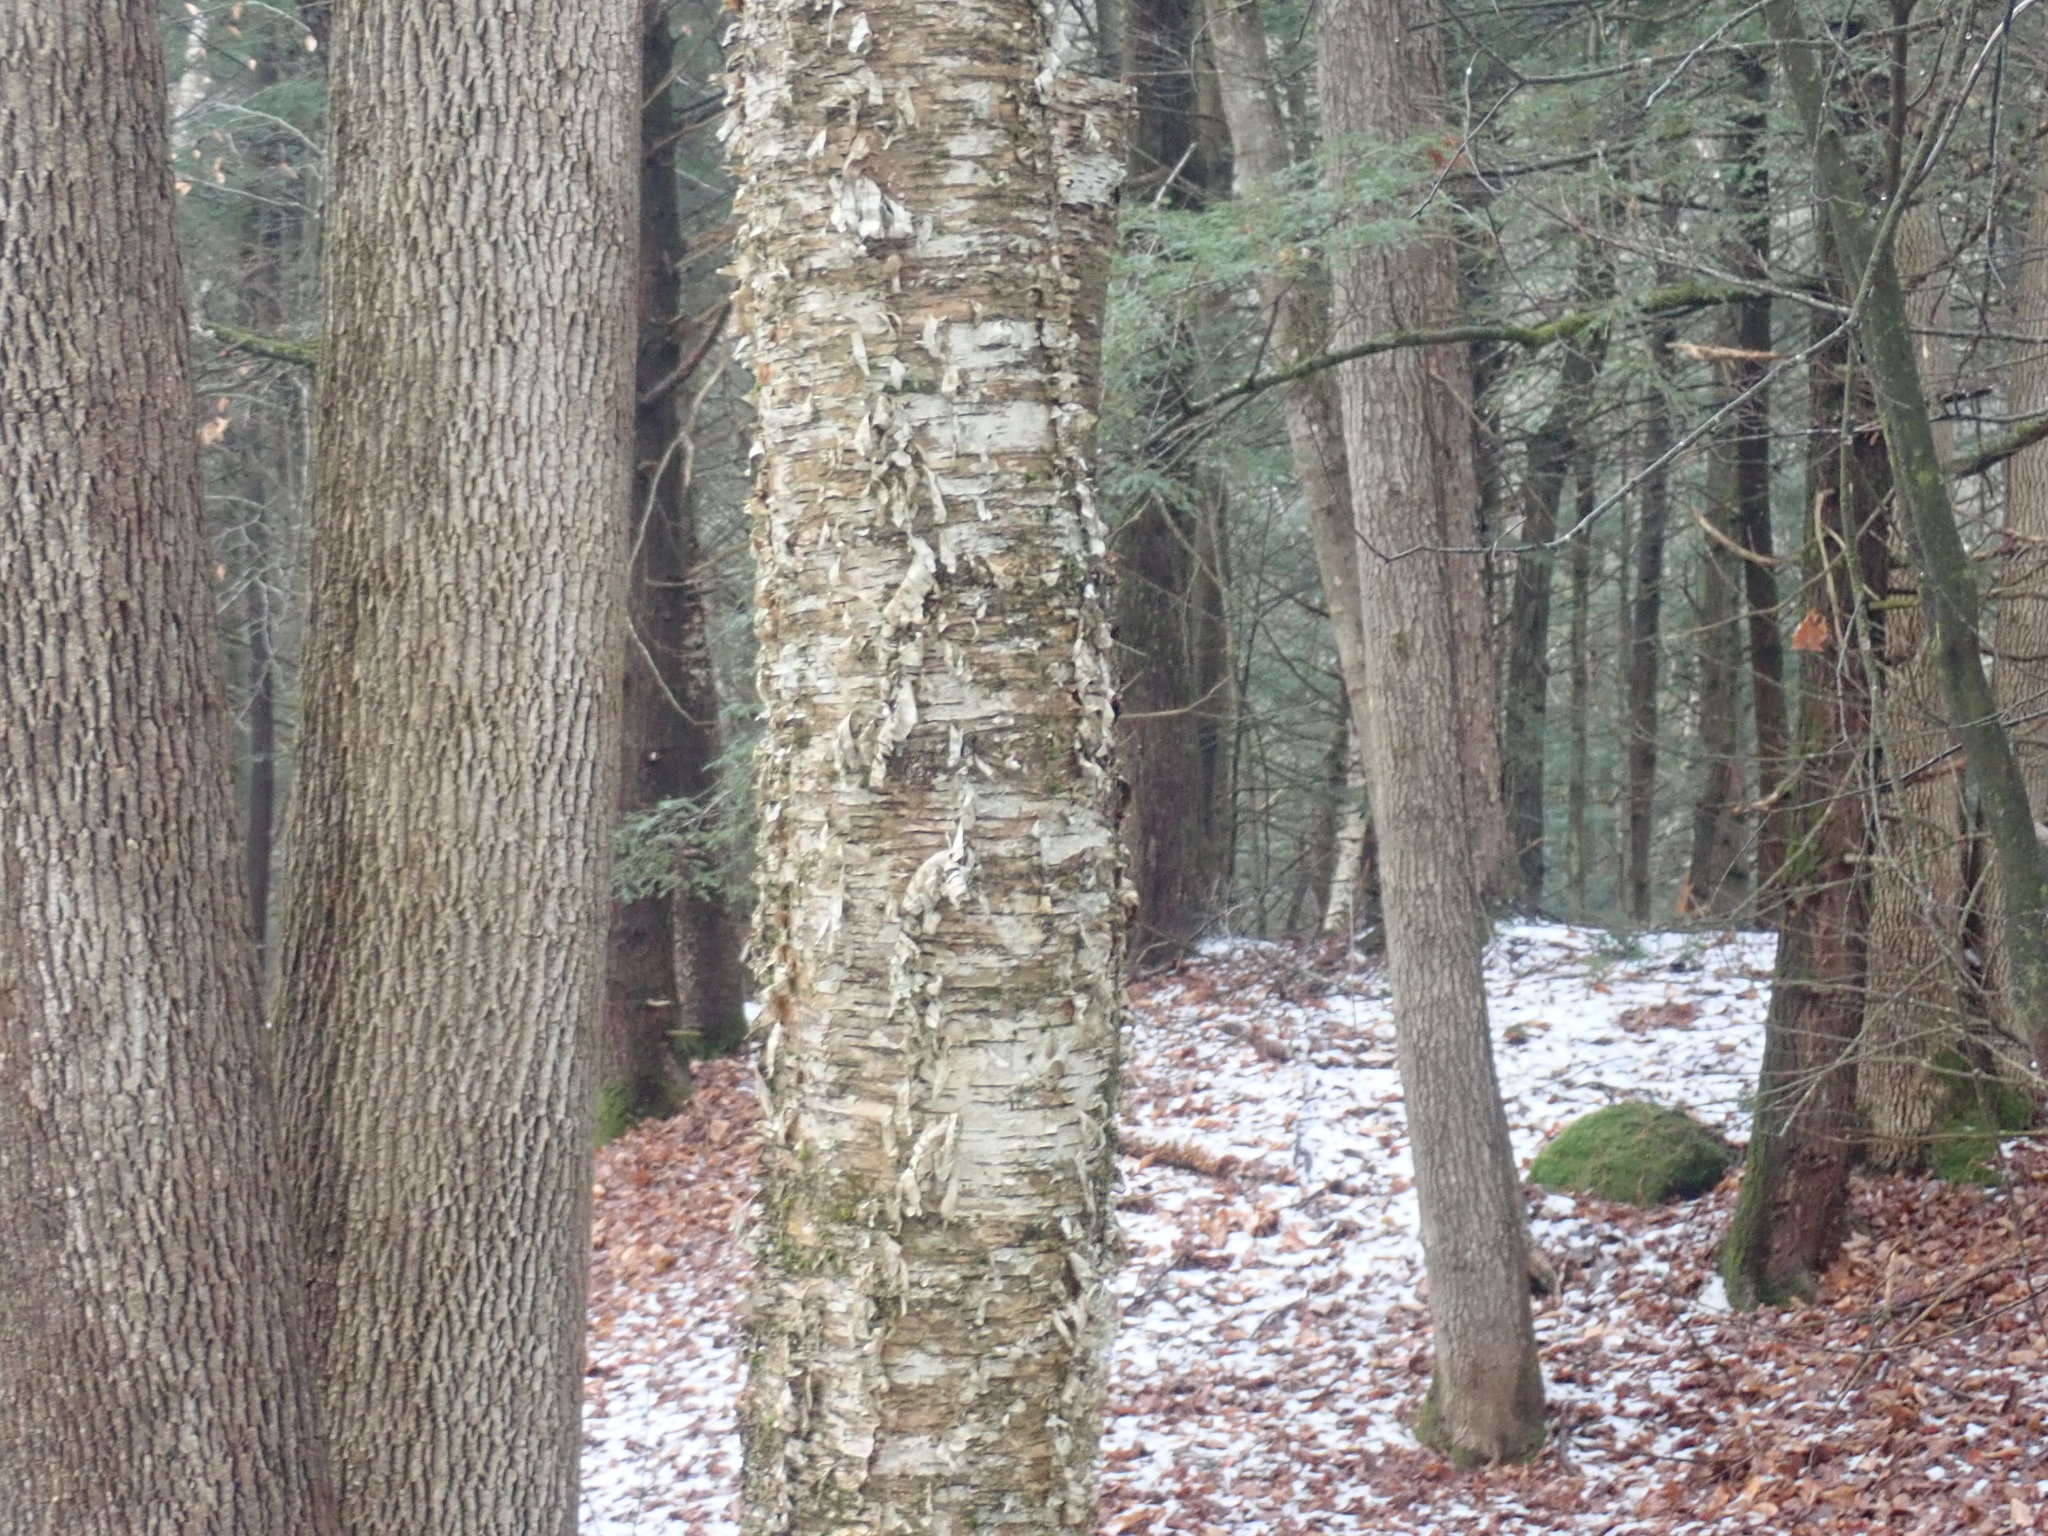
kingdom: Plantae
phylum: Tracheophyta
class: Magnoliopsida
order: Fagales
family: Betulaceae
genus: Betula
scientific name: Betula alleghaniensis
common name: Yellow birch
